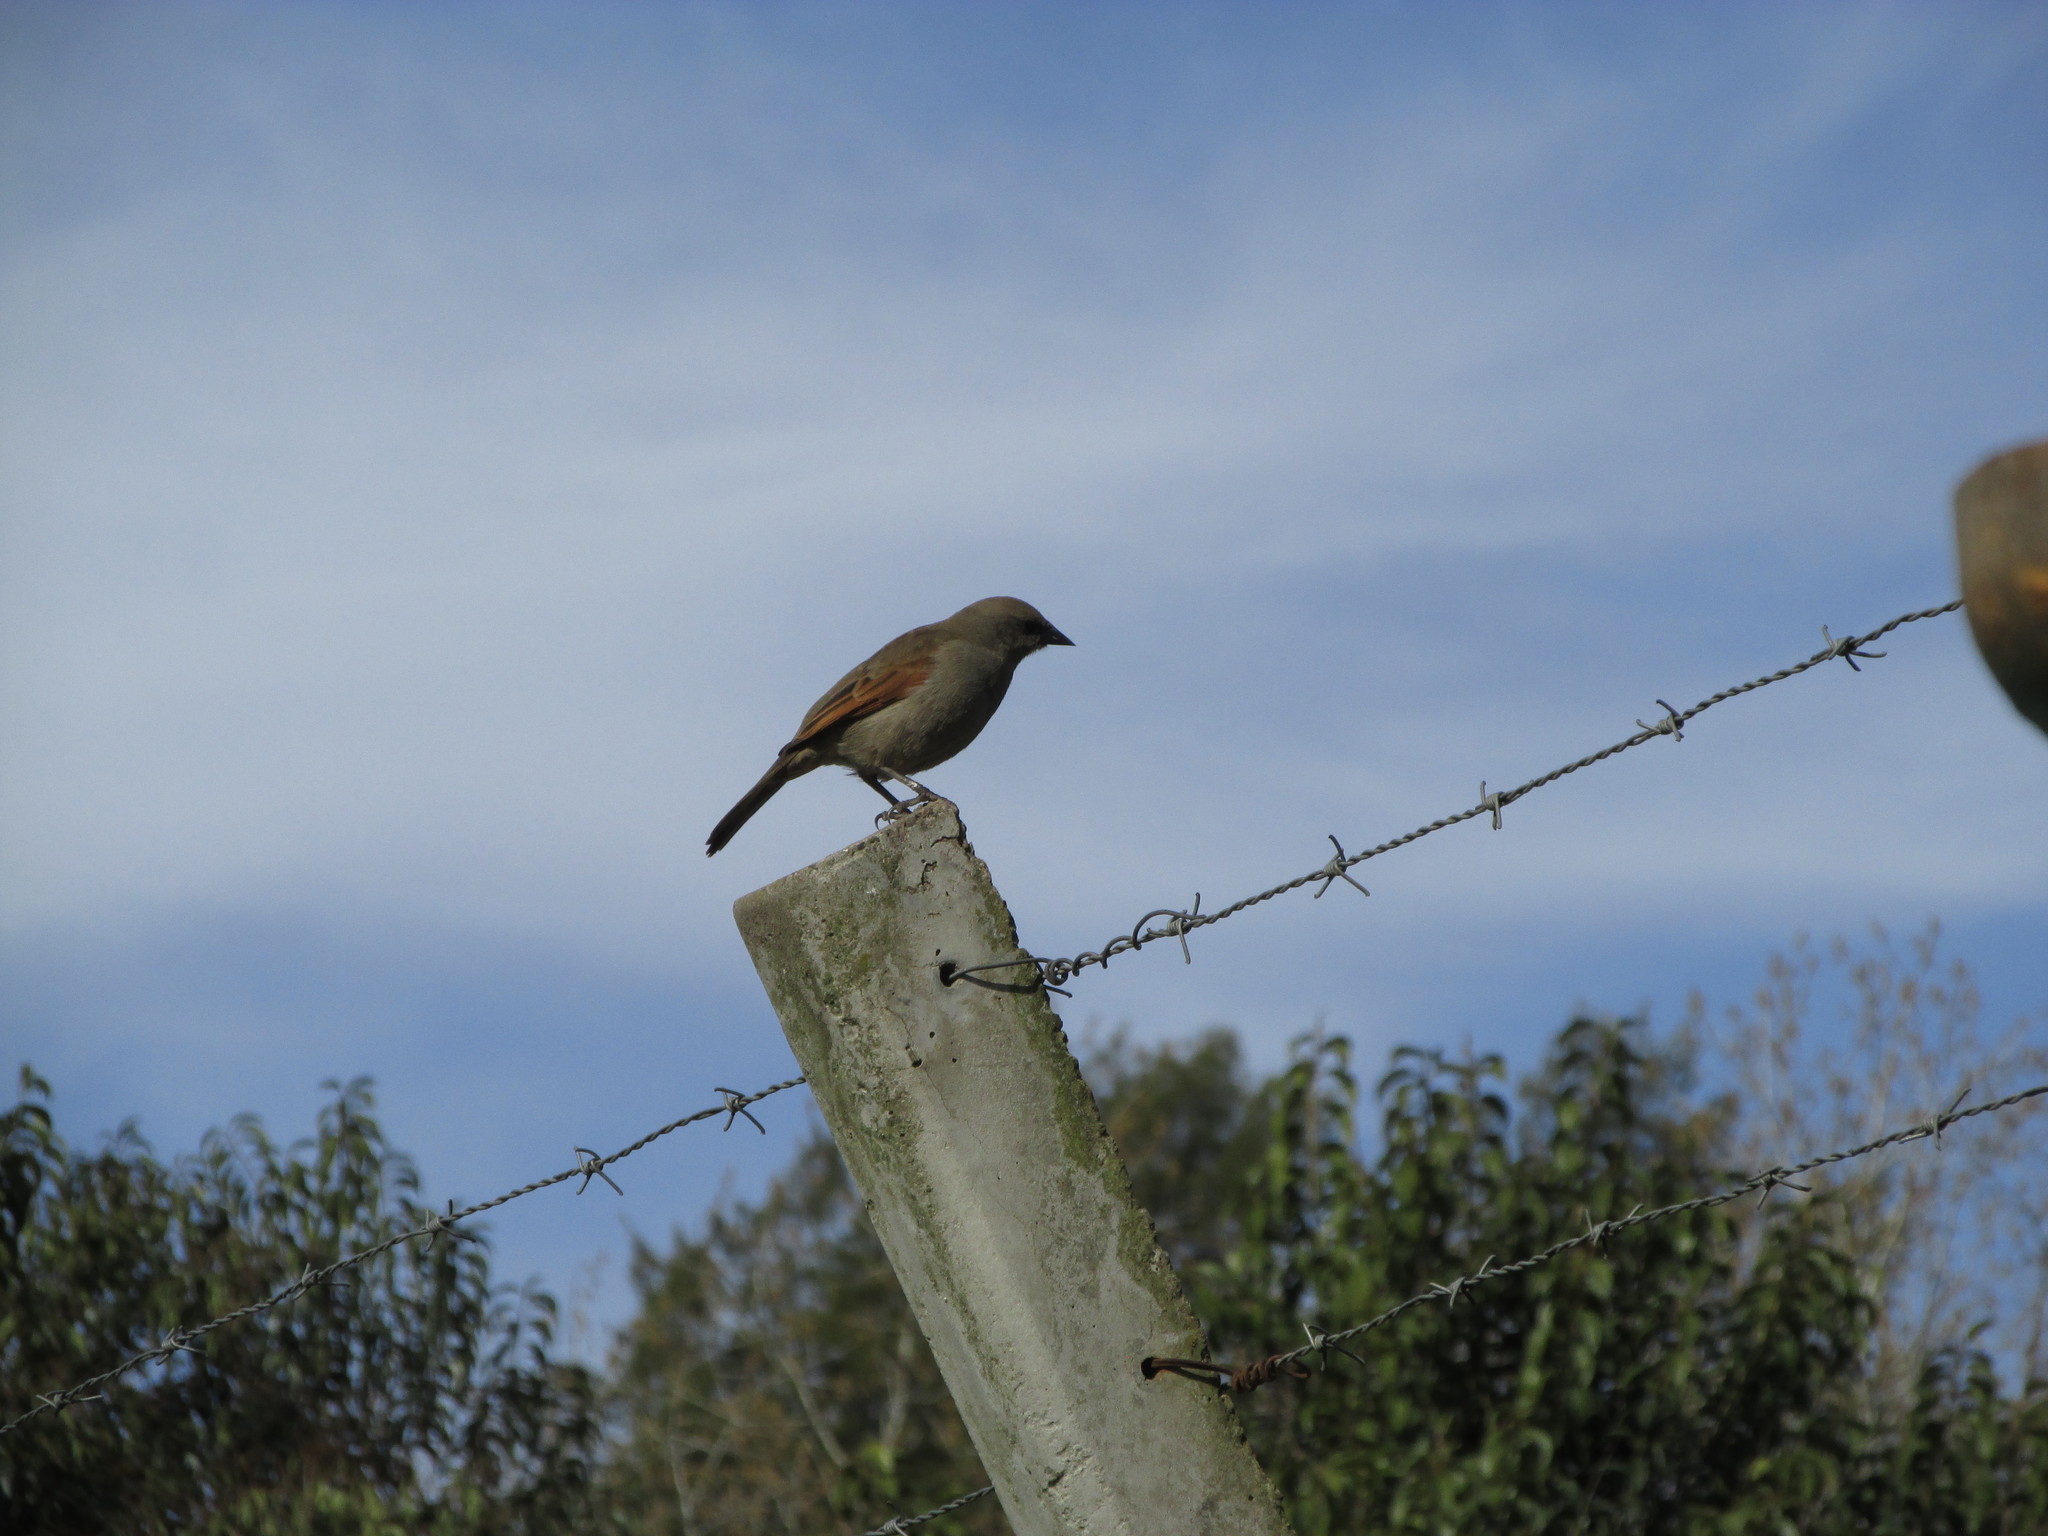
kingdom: Animalia
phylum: Chordata
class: Aves
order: Passeriformes
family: Icteridae
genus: Agelaioides
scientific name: Agelaioides badius
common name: Baywing
